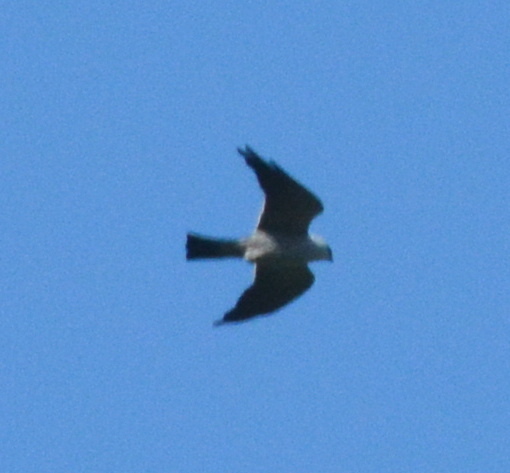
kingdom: Animalia
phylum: Chordata
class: Aves
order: Accipitriformes
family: Accipitridae
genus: Ictinia
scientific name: Ictinia mississippiensis
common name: Mississippi kite
